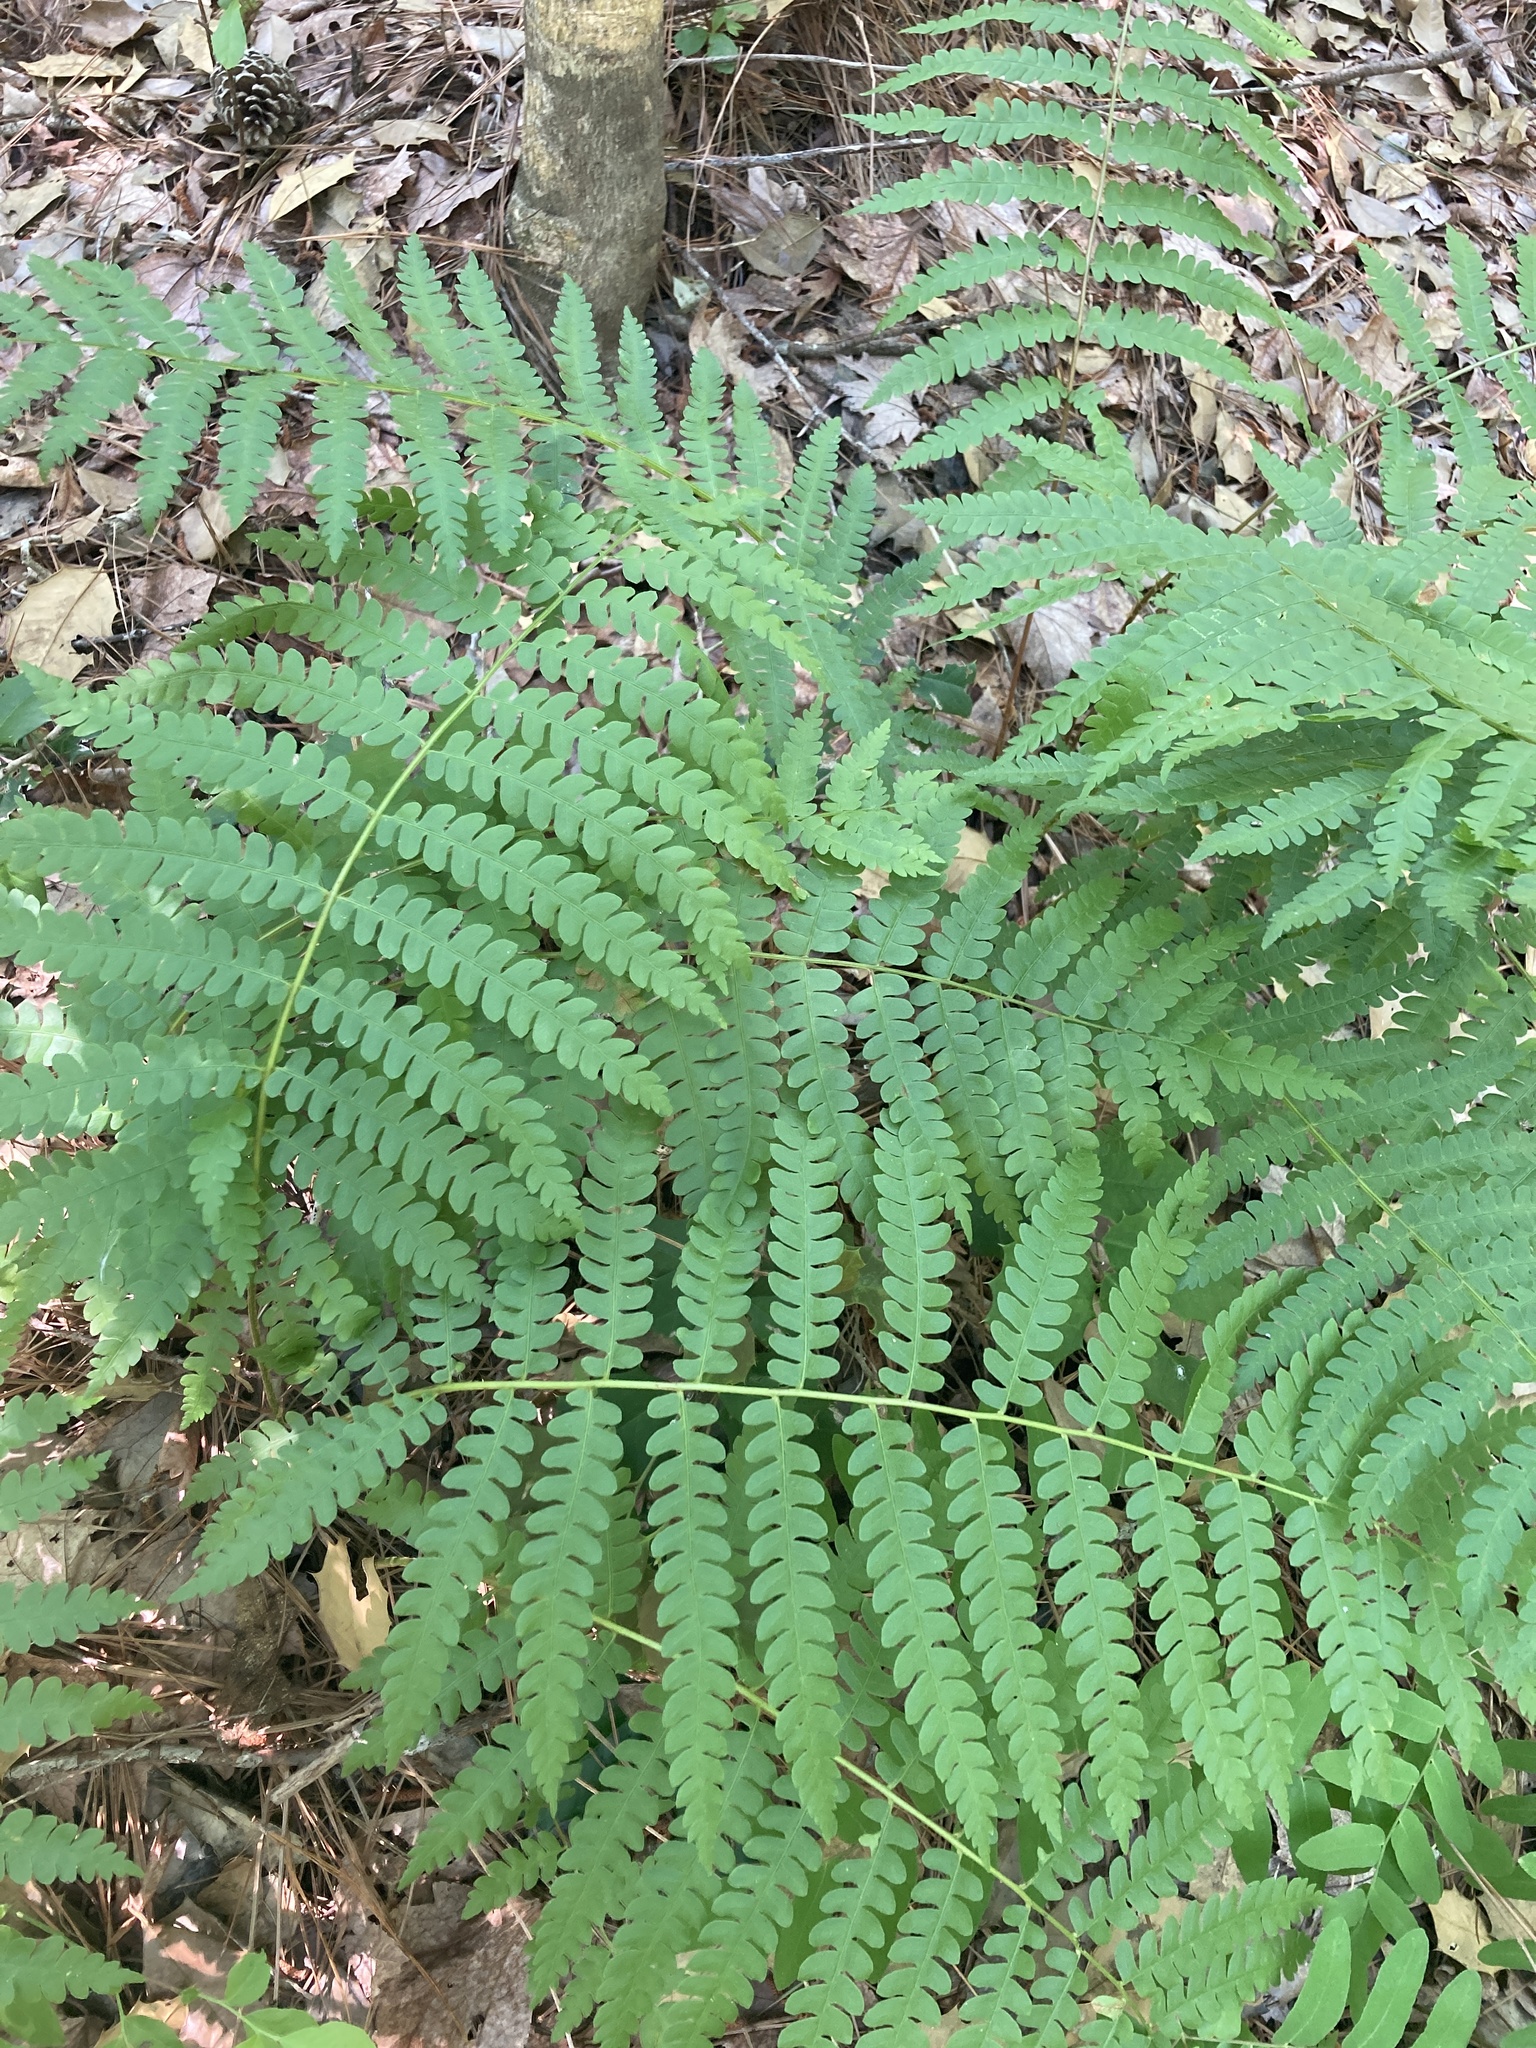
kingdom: Plantae
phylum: Tracheophyta
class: Polypodiopsida
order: Osmundales
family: Osmundaceae
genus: Osmundastrum
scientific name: Osmundastrum cinnamomeum
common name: Cinnamon fern
